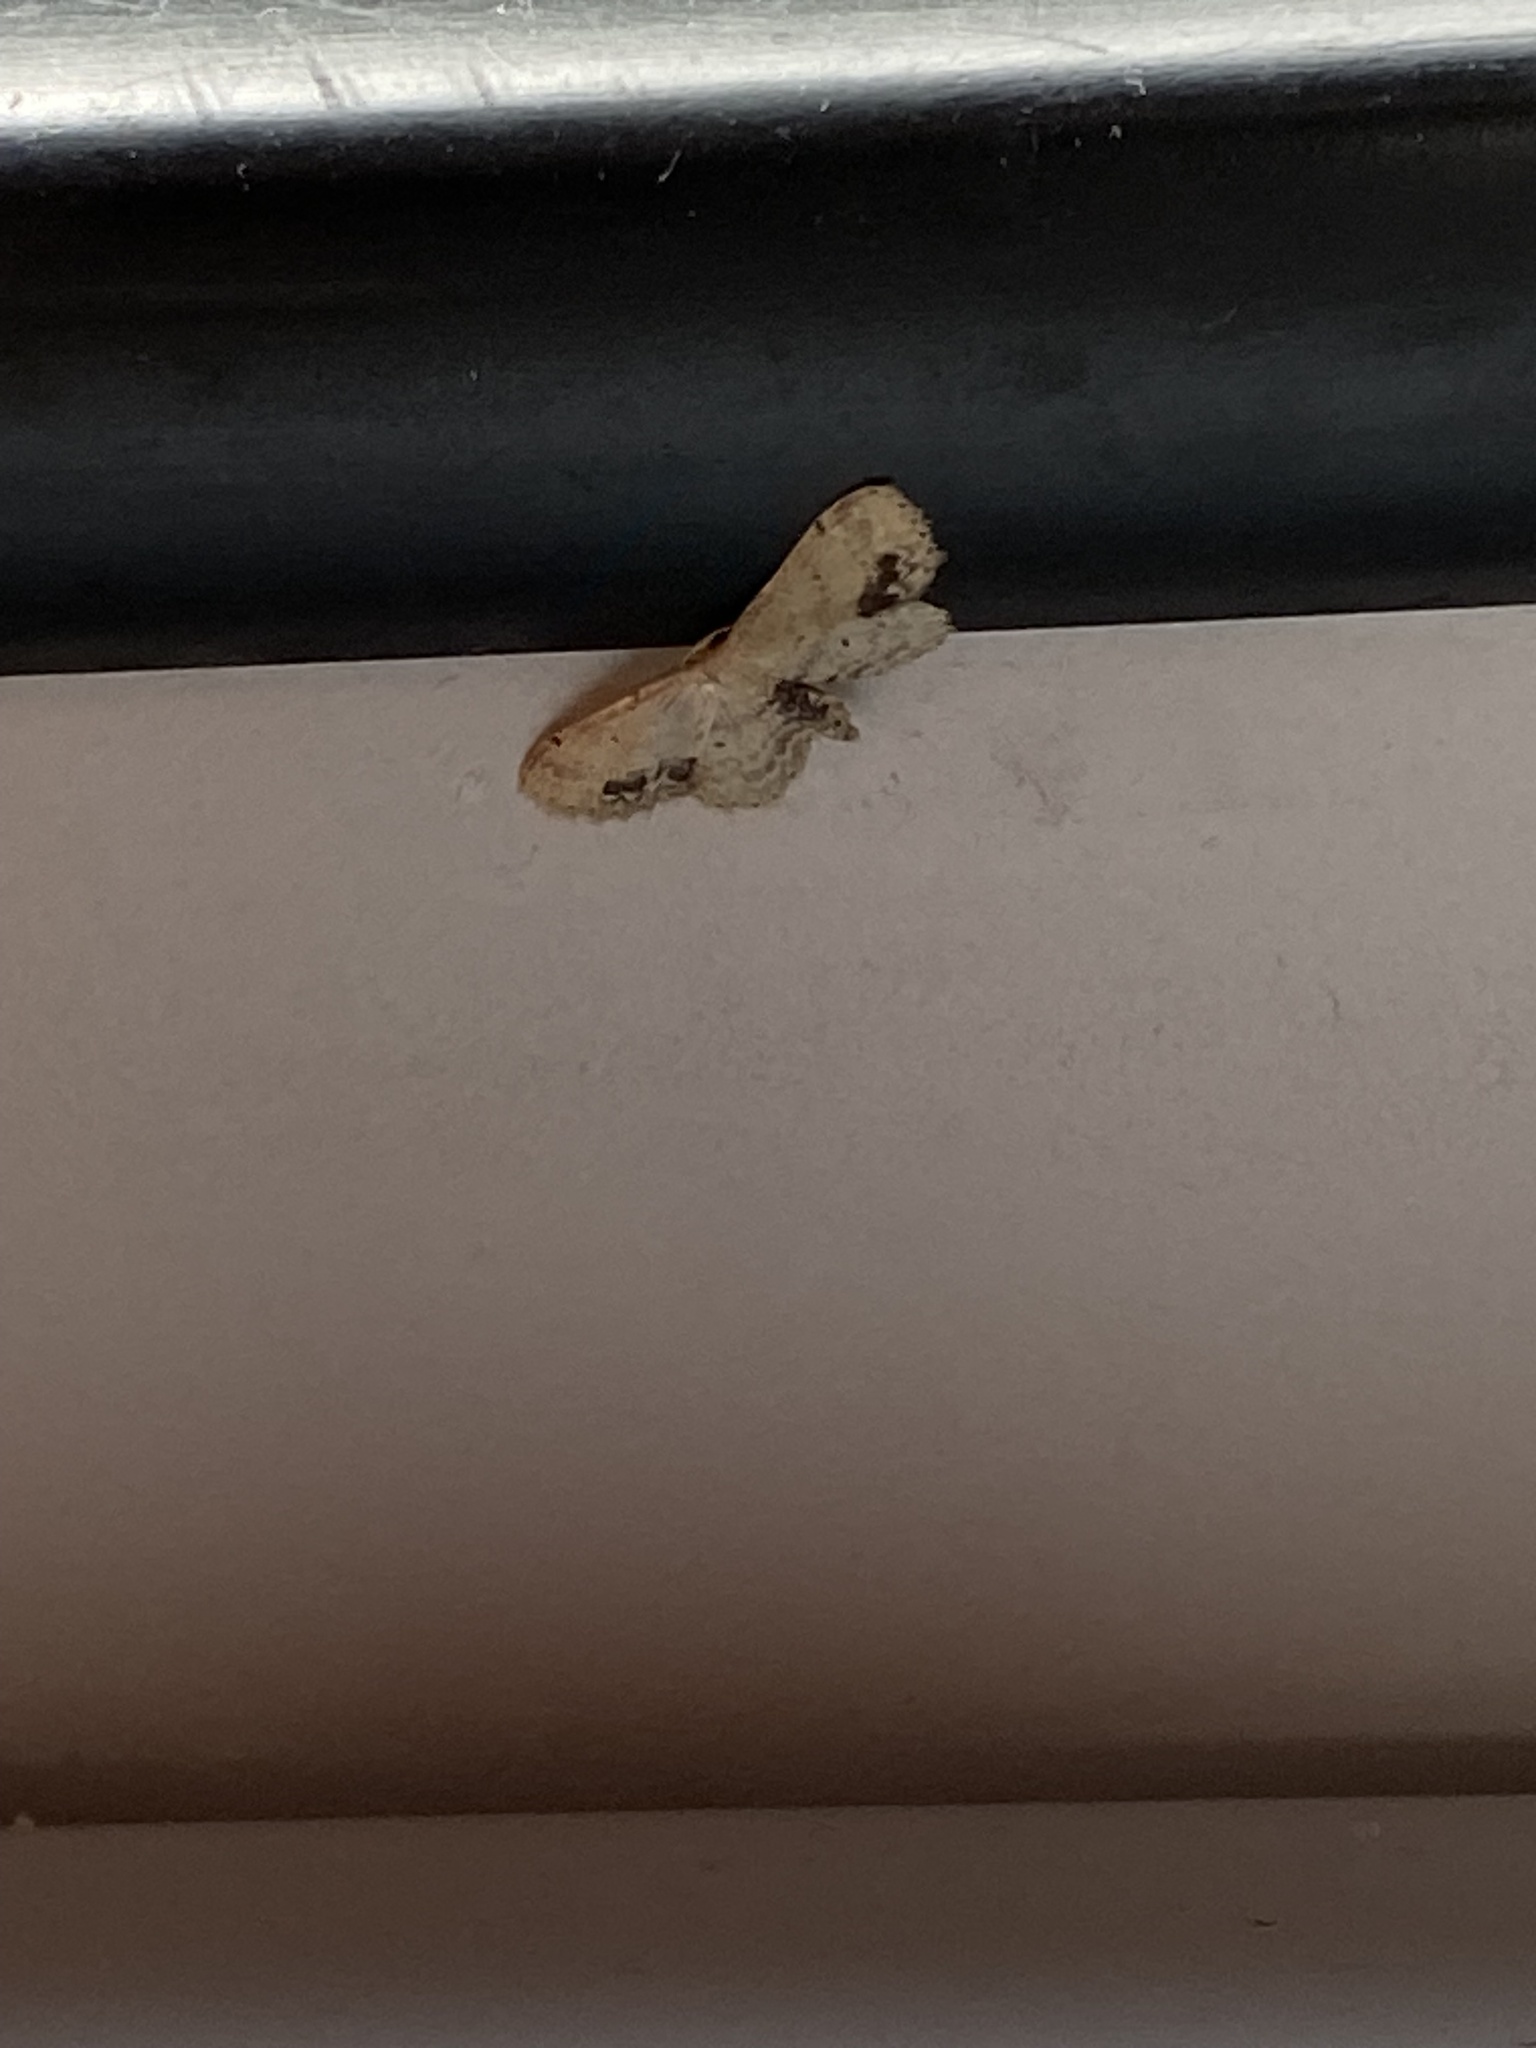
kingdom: Animalia
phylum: Arthropoda
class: Insecta
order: Lepidoptera
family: Geometridae
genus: Idaea
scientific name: Idaea dimidiata
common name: Single-dotted wave
